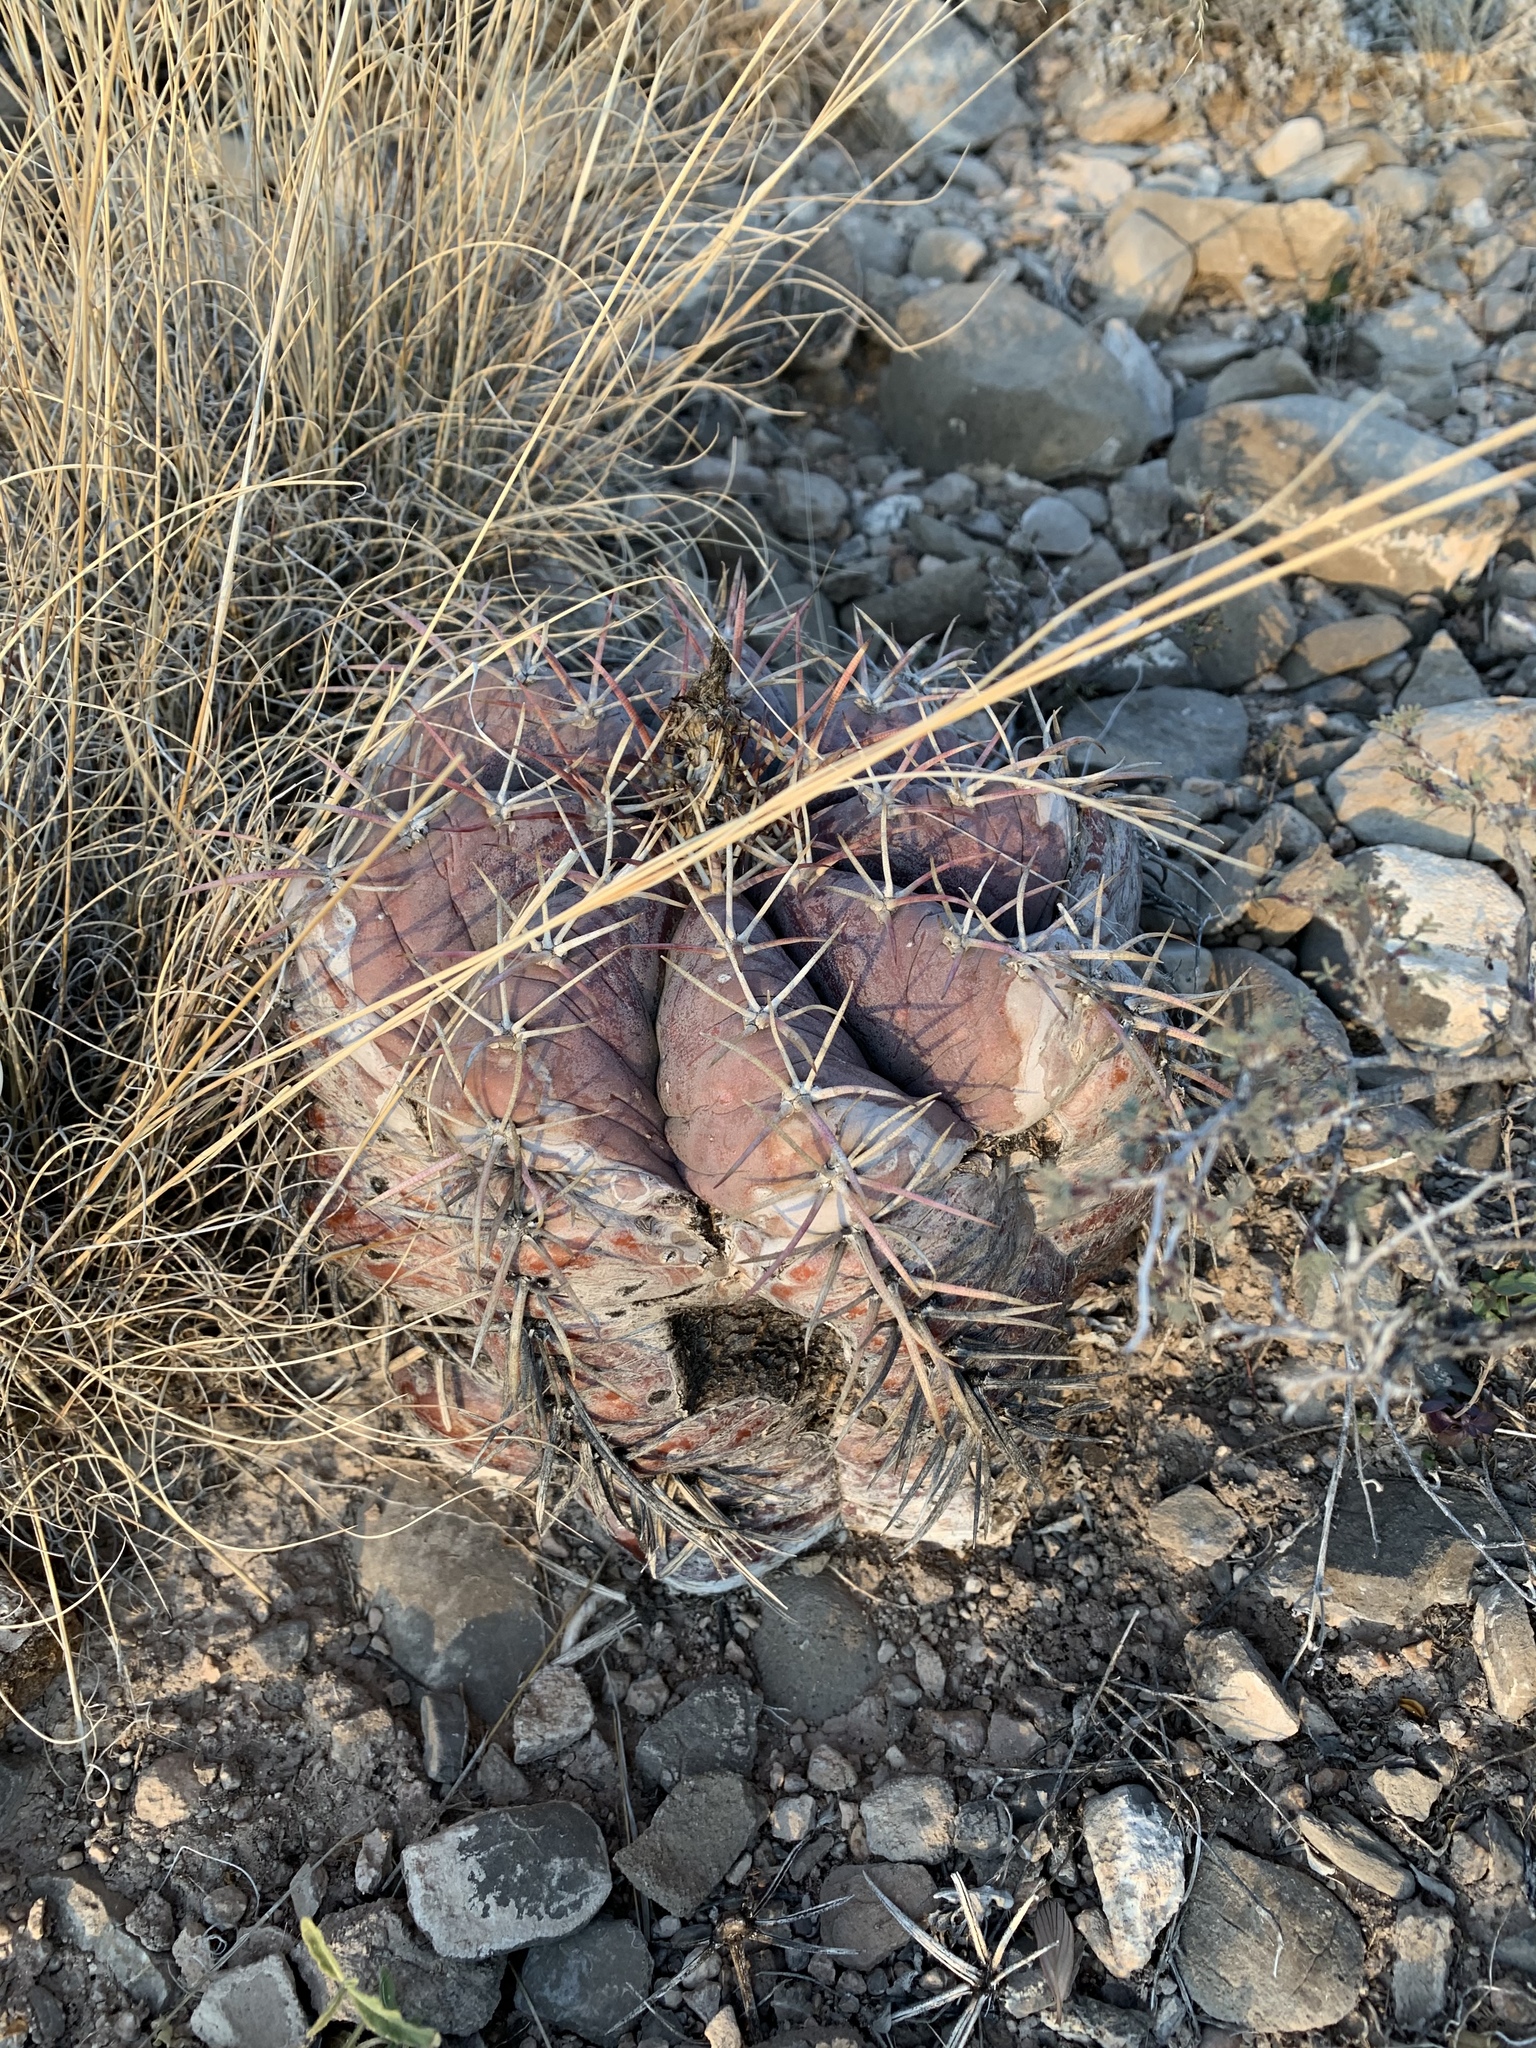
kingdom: Plantae
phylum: Tracheophyta
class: Magnoliopsida
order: Caryophyllales
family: Cactaceae
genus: Echinocactus
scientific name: Echinocactus horizonthalonius
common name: Devilshead
